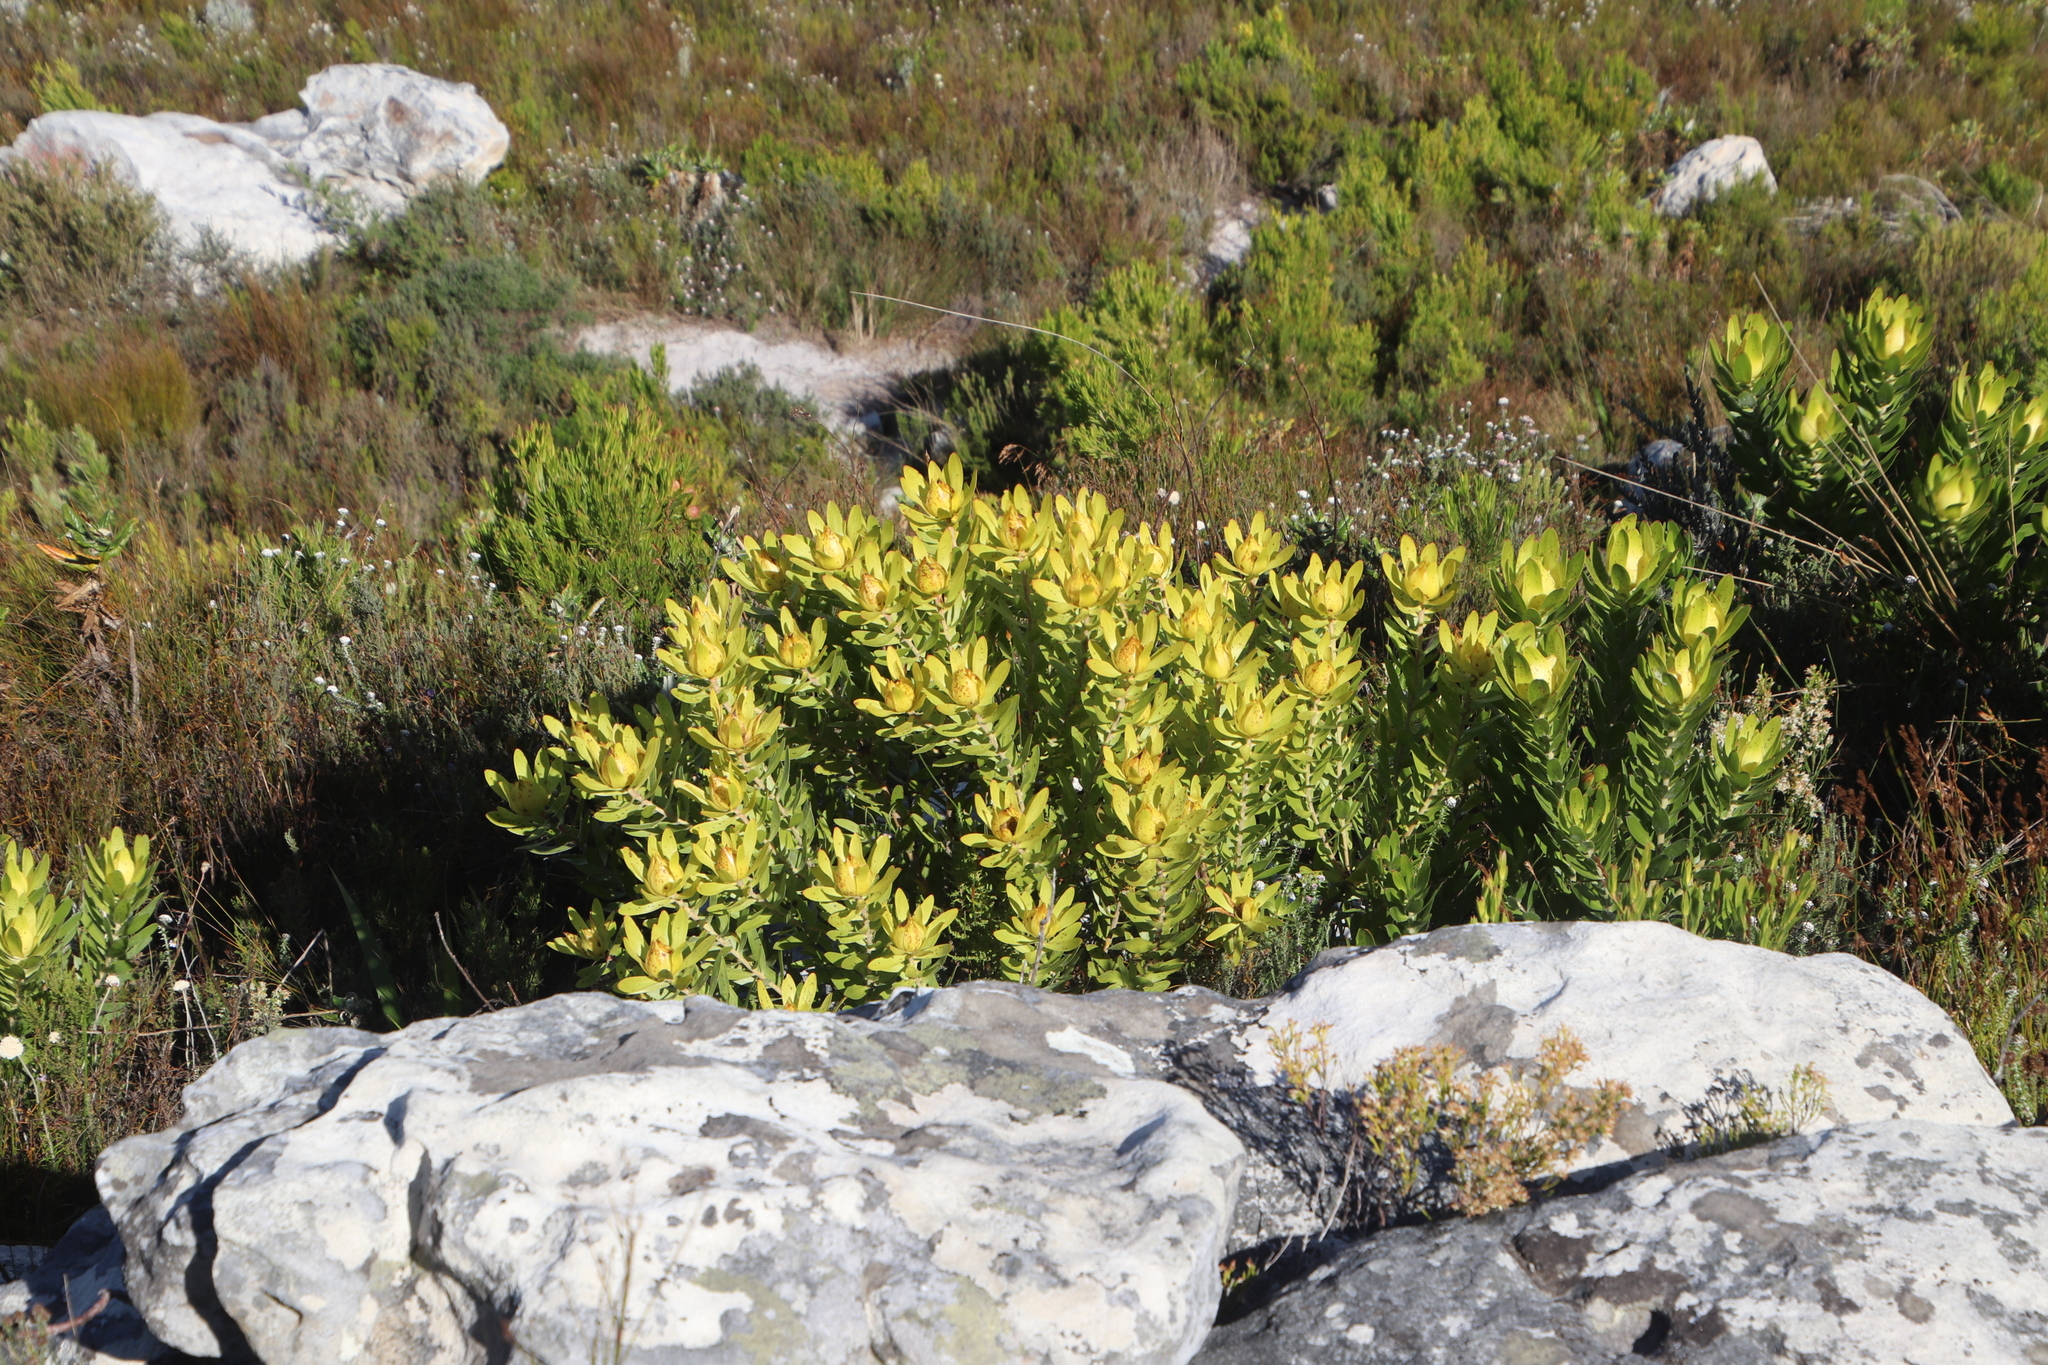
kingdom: Plantae
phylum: Tracheophyta
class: Magnoliopsida
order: Proteales
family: Proteaceae
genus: Leucadendron
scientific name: Leucadendron laureolum
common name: Golden sunshinebush
